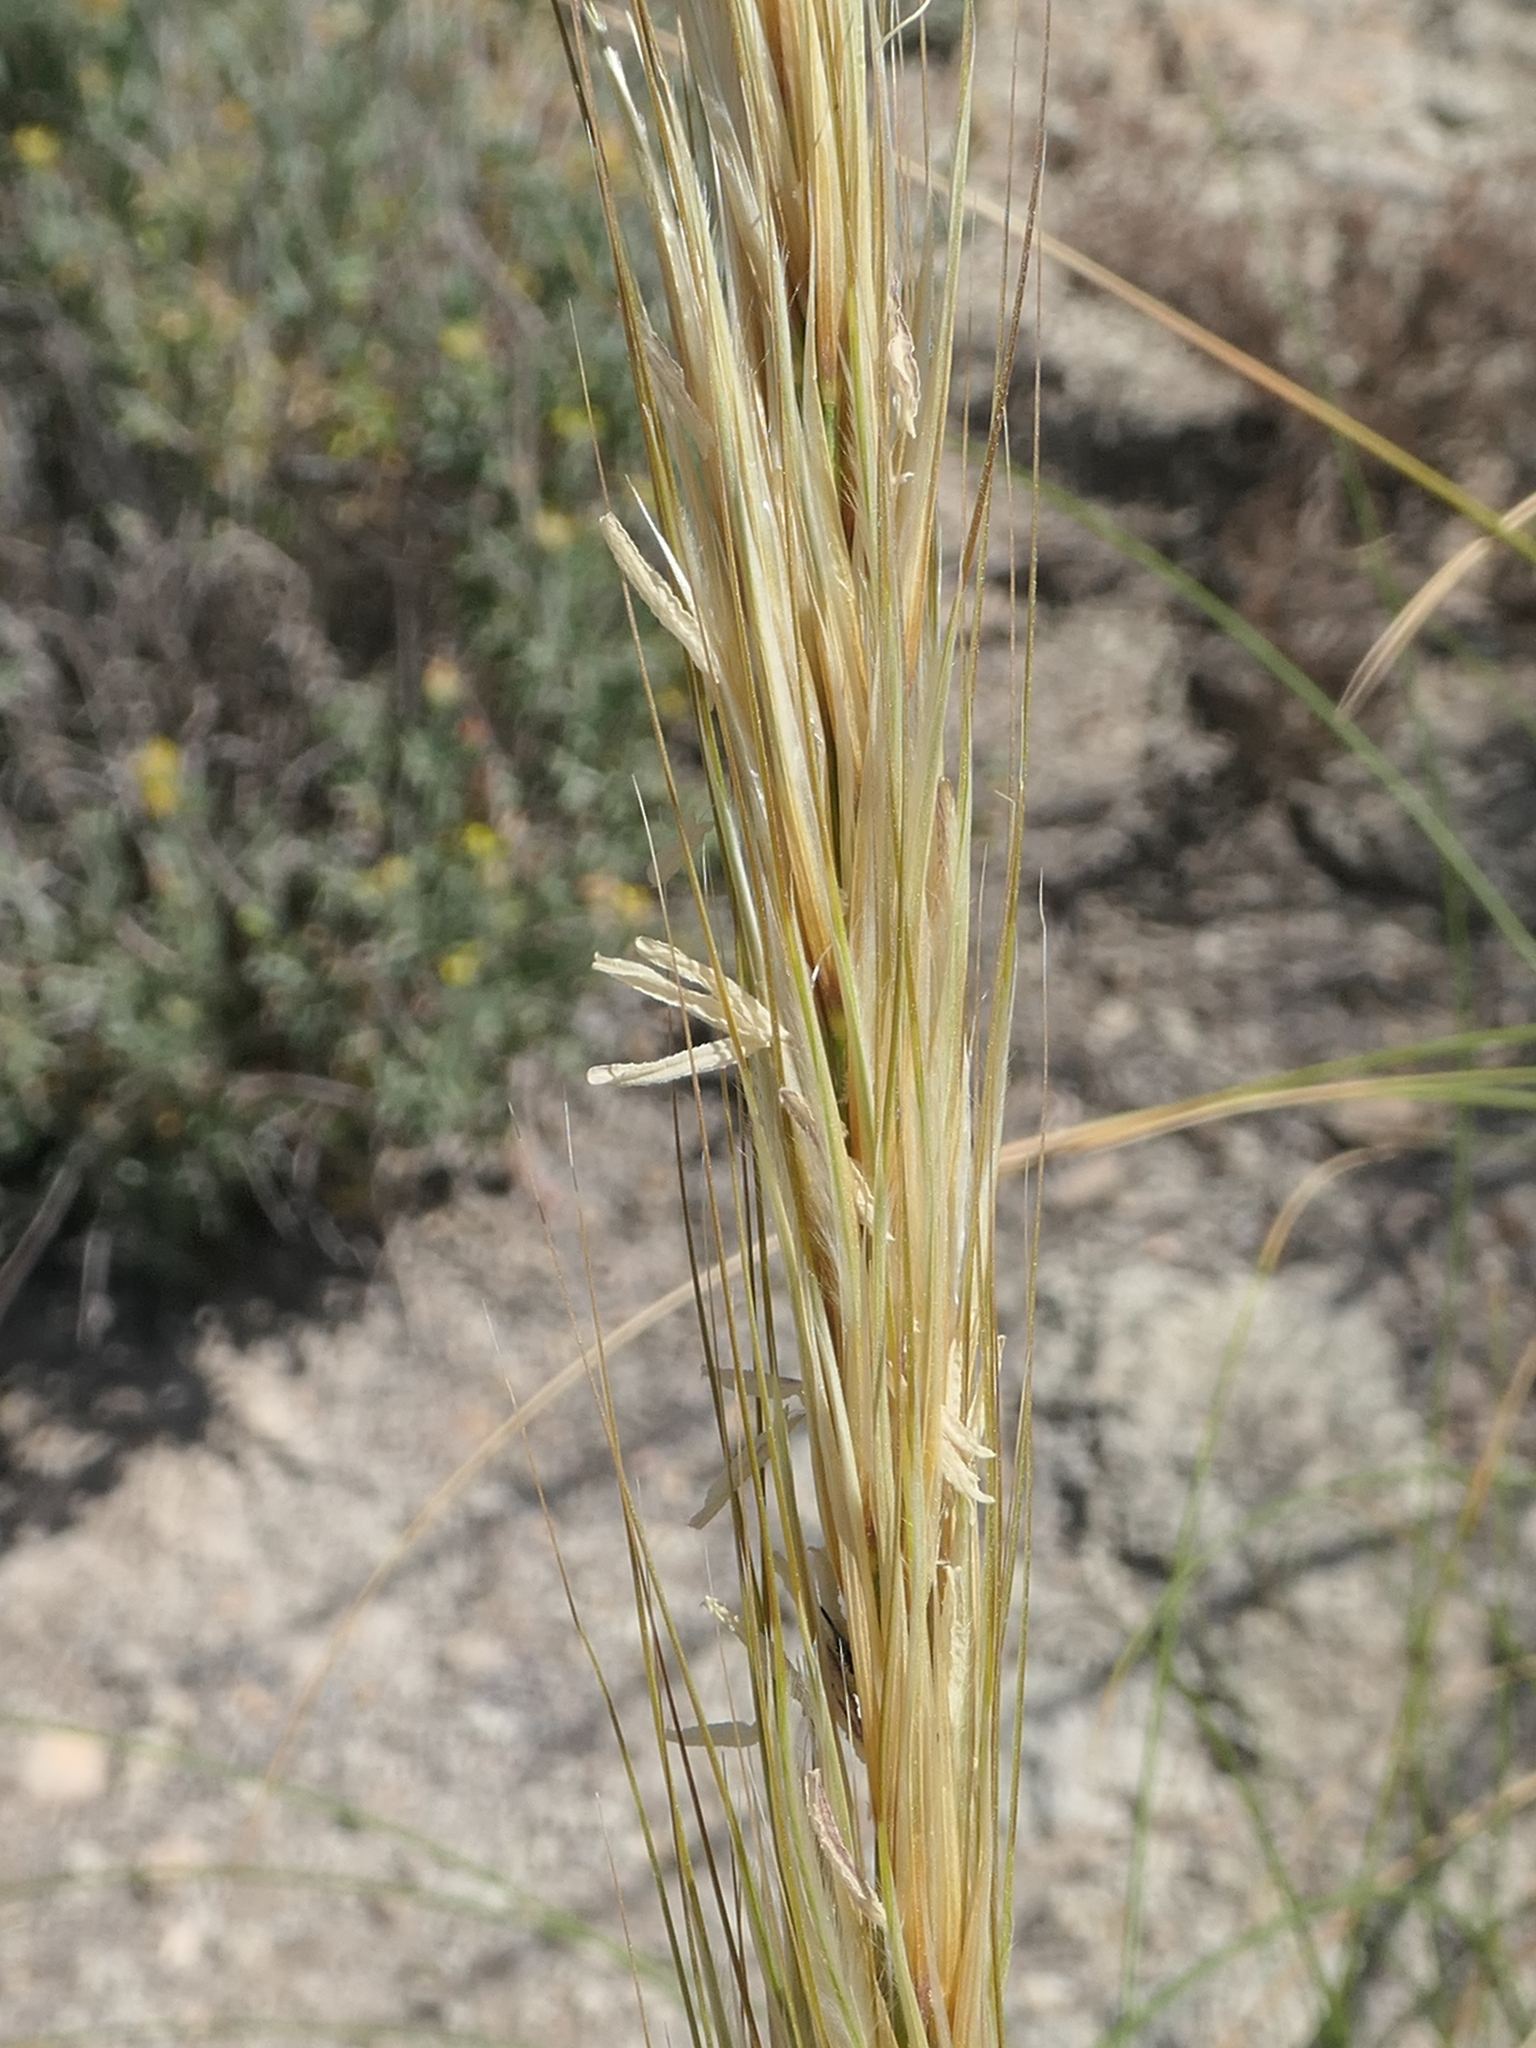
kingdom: Plantae
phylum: Tracheophyta
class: Liliopsida
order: Poales
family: Poaceae
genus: Macrochloa
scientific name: Macrochloa tenacissima
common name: Alfa grass
